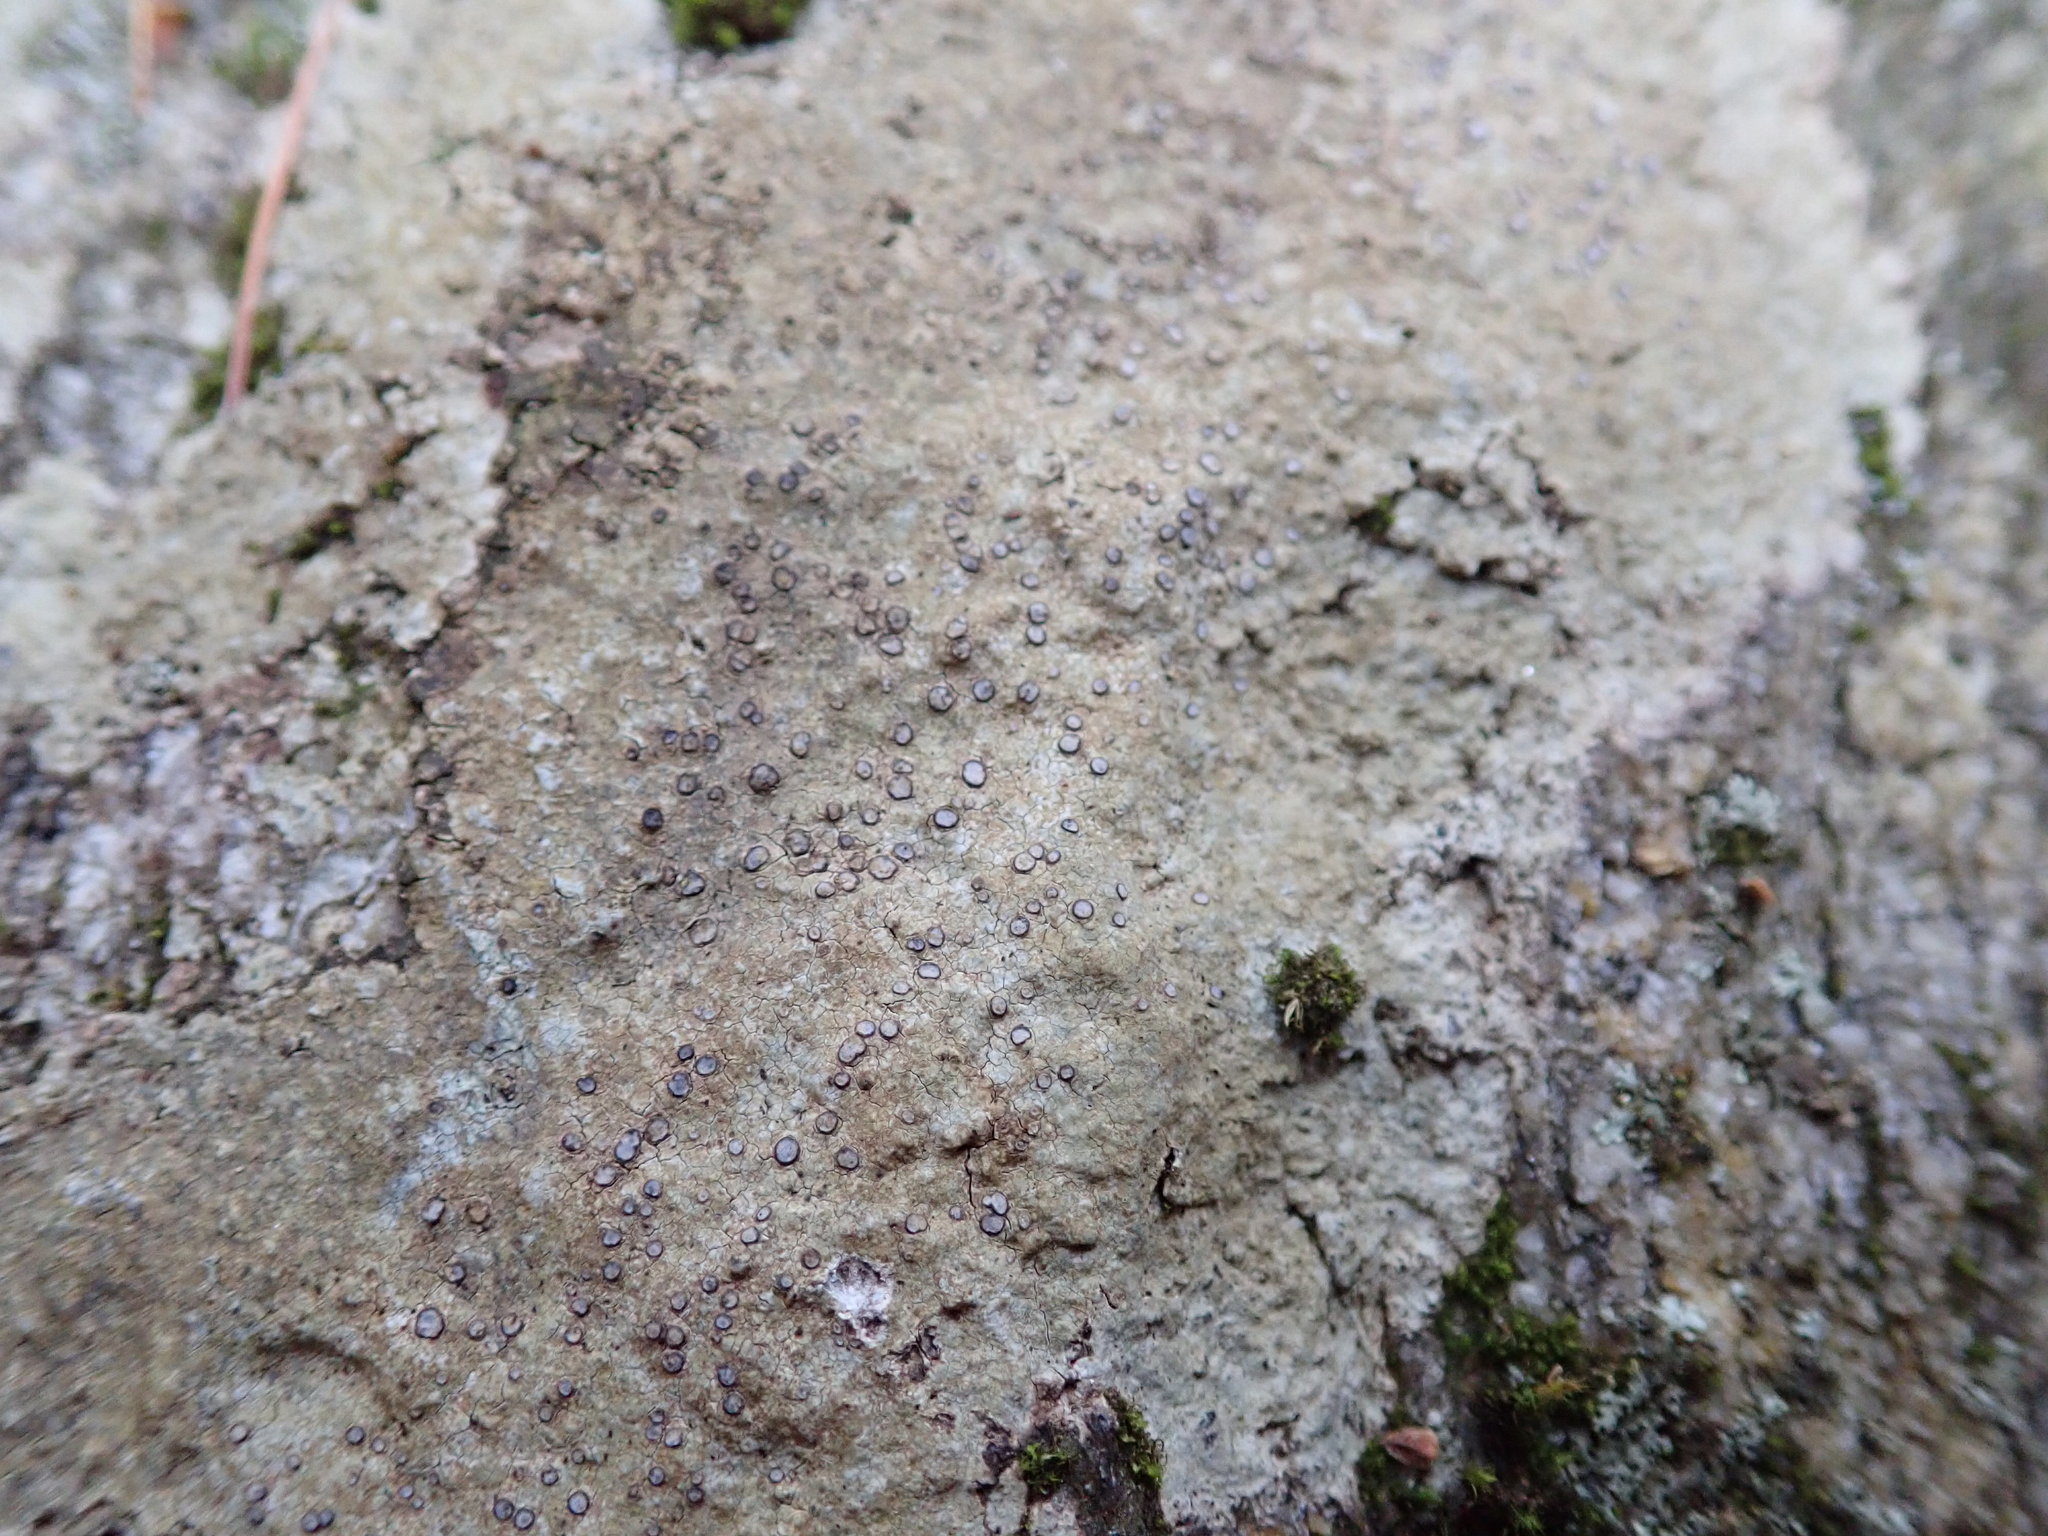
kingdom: Fungi
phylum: Ascomycota
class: Lecanoromycetes
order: Lecideales
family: Lecideaceae
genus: Porpidia
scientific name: Porpidia albocaerulescens
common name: Smokey-eyed boulder lichen
